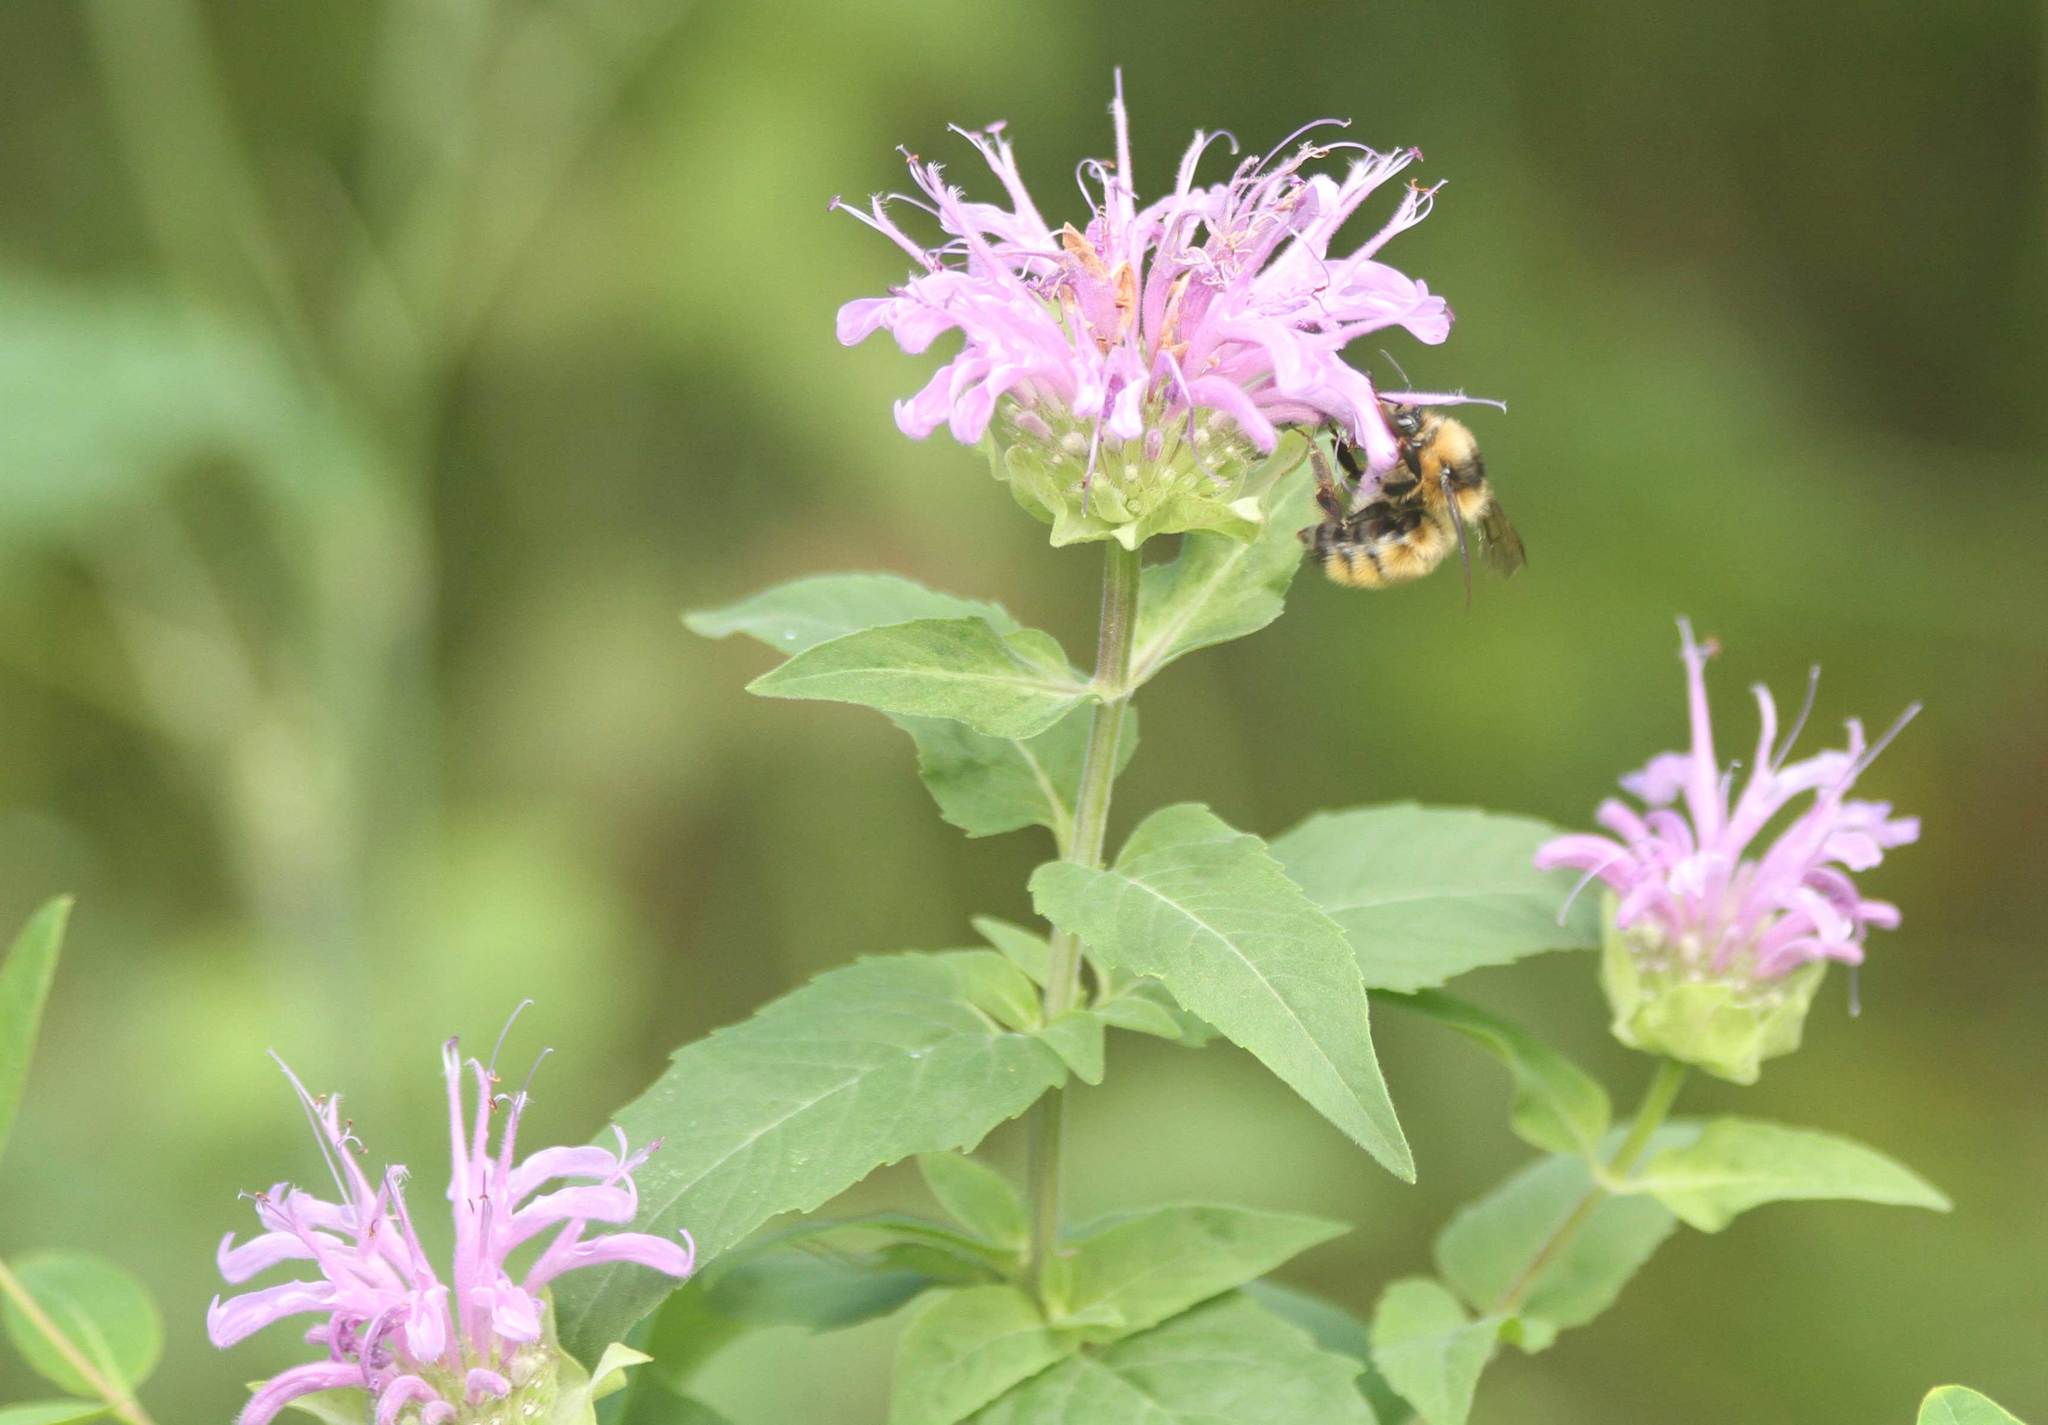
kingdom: Animalia
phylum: Arthropoda
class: Insecta
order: Hymenoptera
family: Apidae
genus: Bombus
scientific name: Bombus appositus
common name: White-shouldered bumble bee
